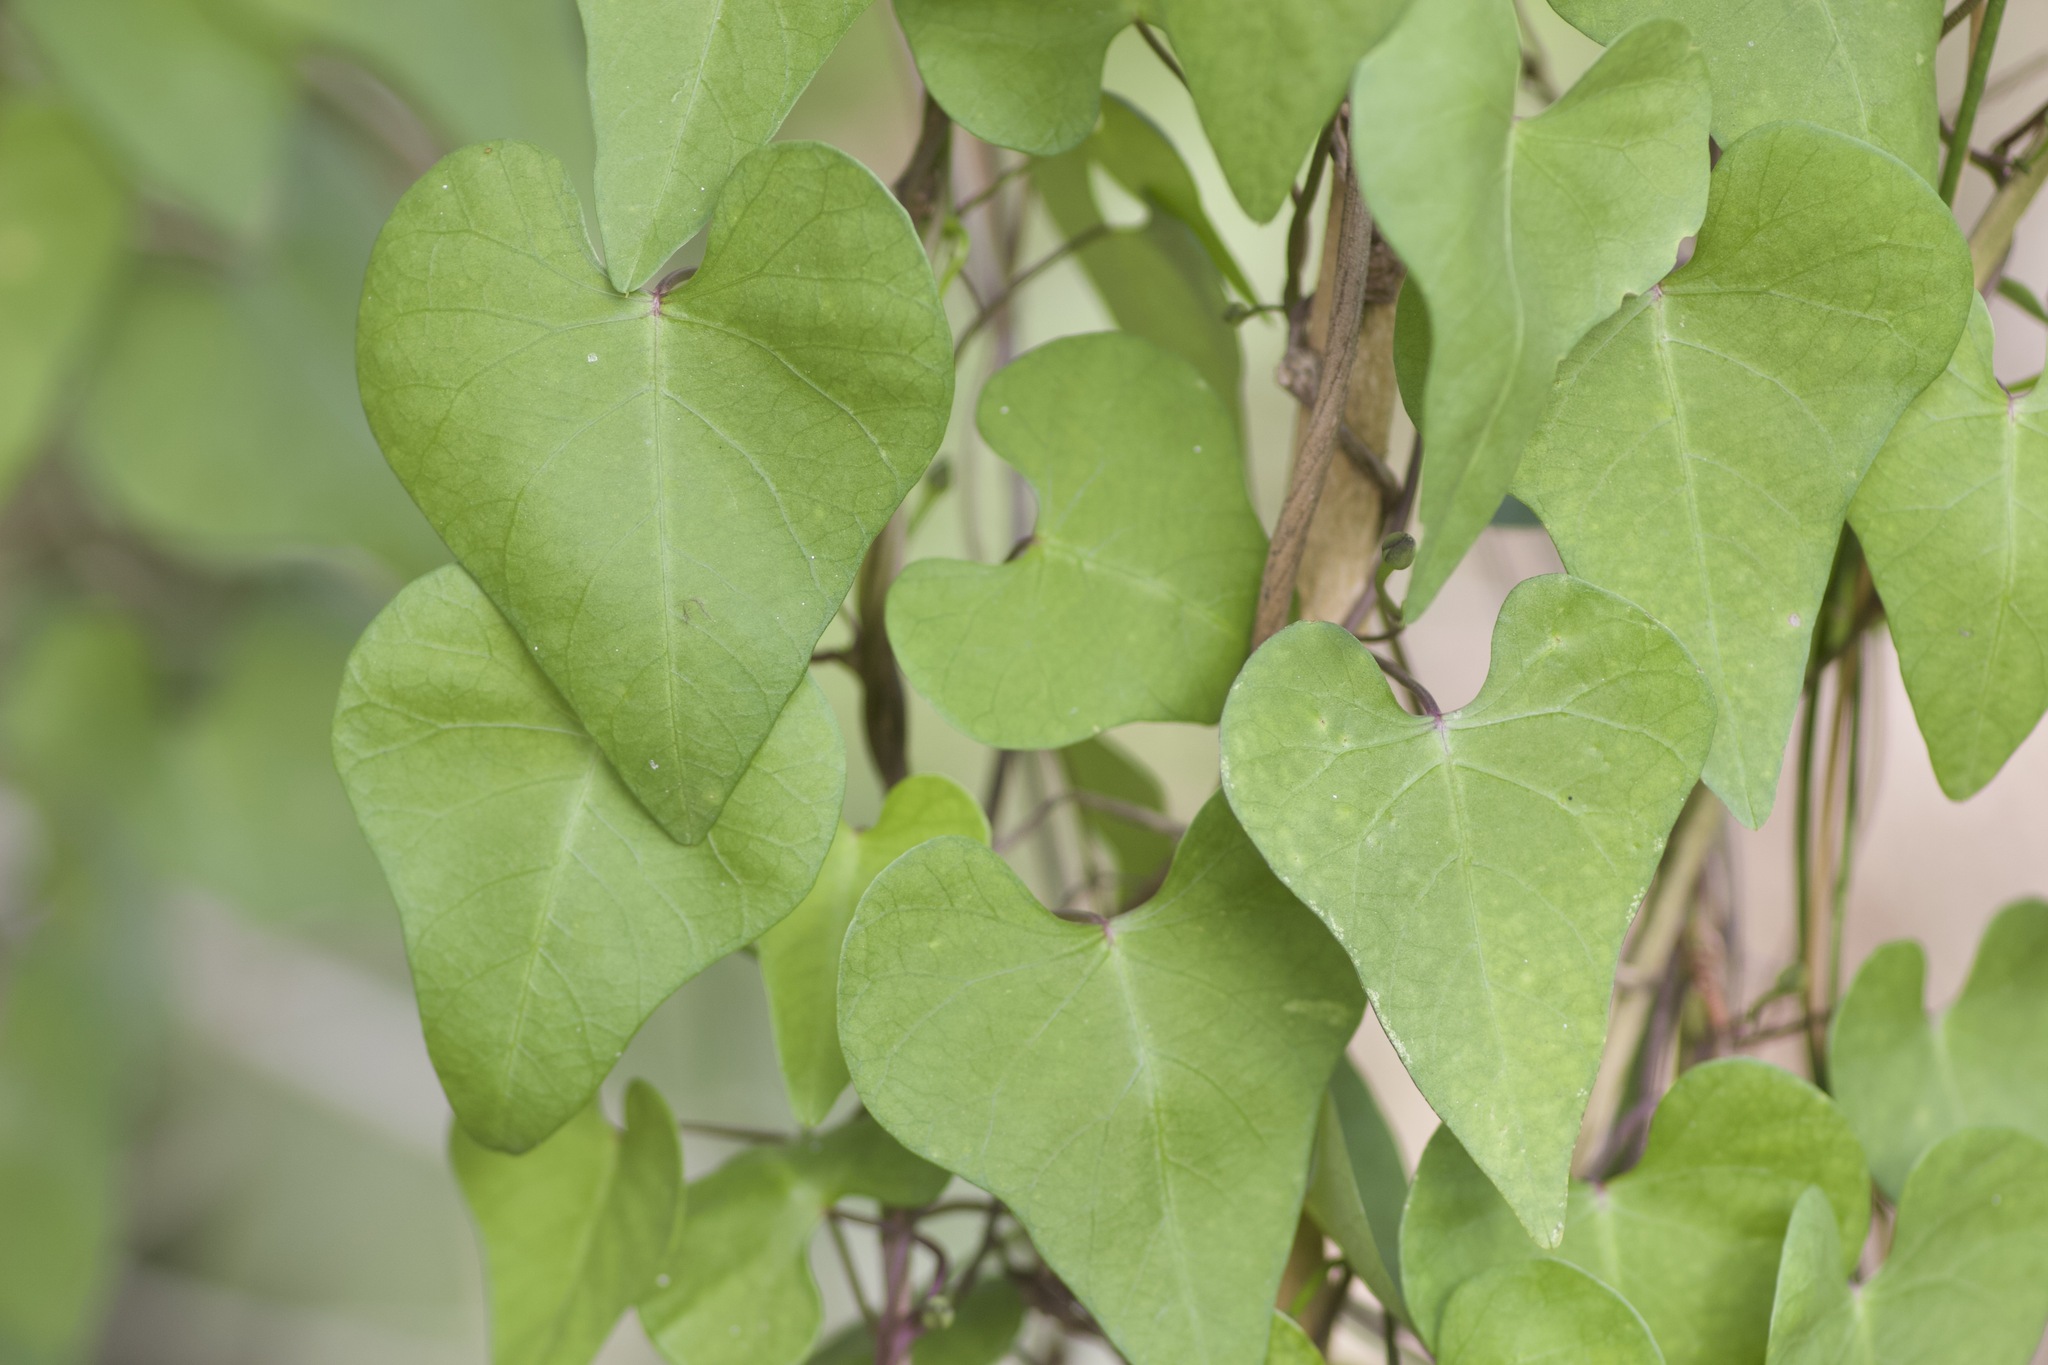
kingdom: Plantae
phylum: Tracheophyta
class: Magnoliopsida
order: Solanales
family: Convolvulaceae
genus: Ipomoea
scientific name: Ipomoea amnicola
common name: Redcenter morning-glory
